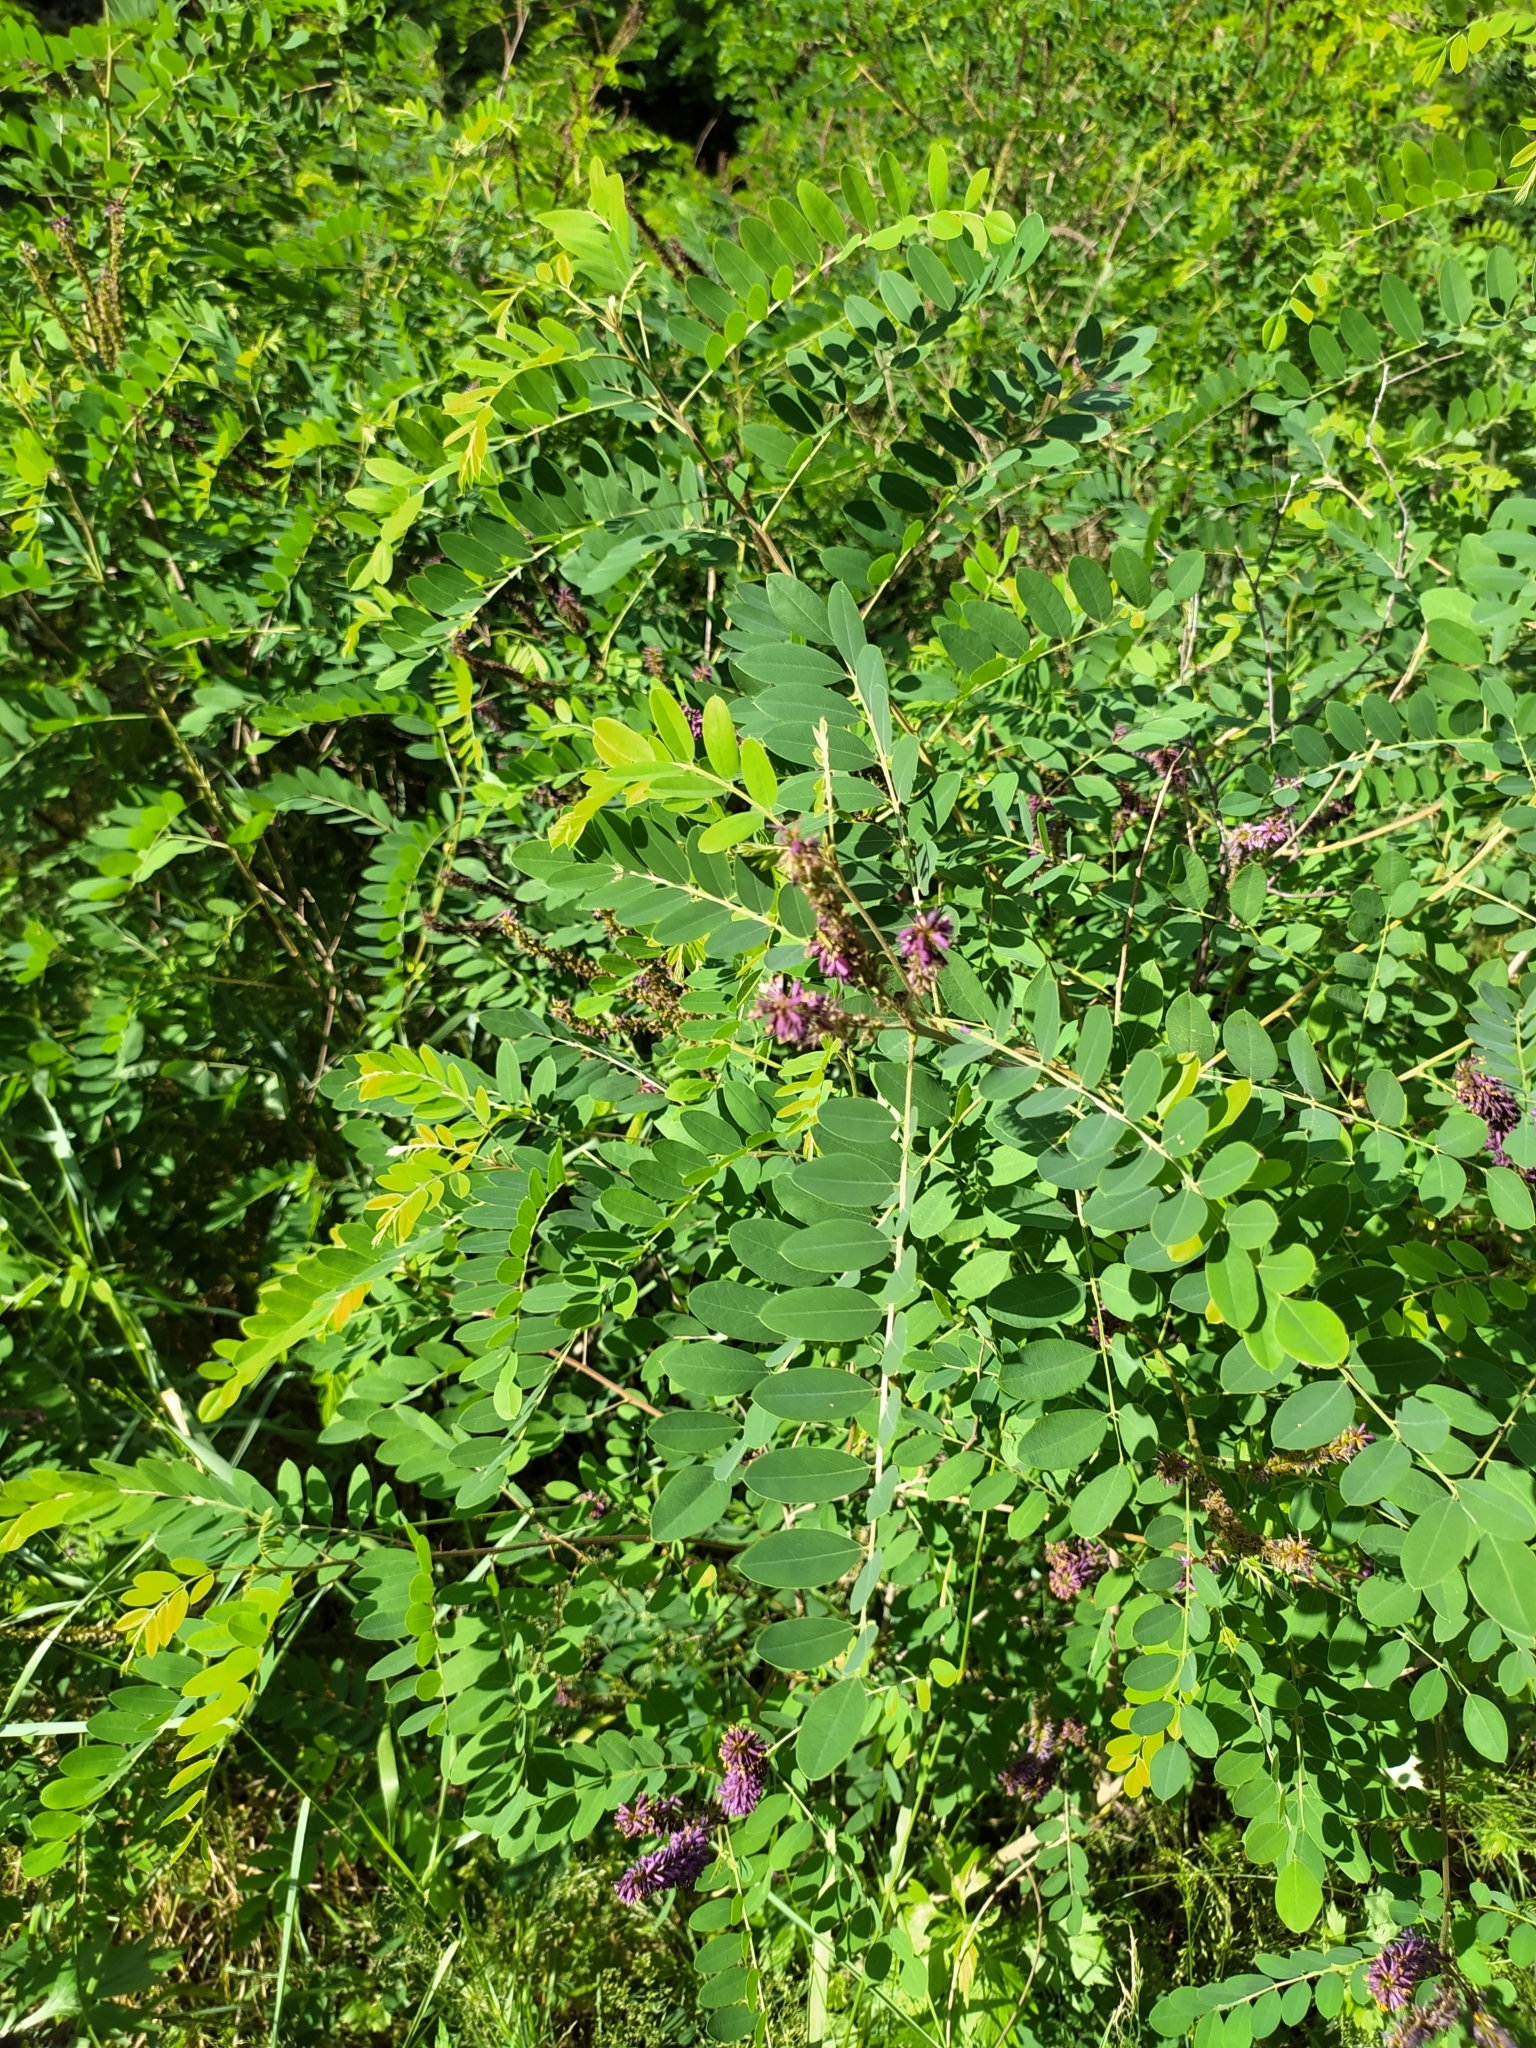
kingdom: Plantae
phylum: Tracheophyta
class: Magnoliopsida
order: Fabales
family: Fabaceae
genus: Amorpha
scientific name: Amorpha fruticosa
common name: False indigo
